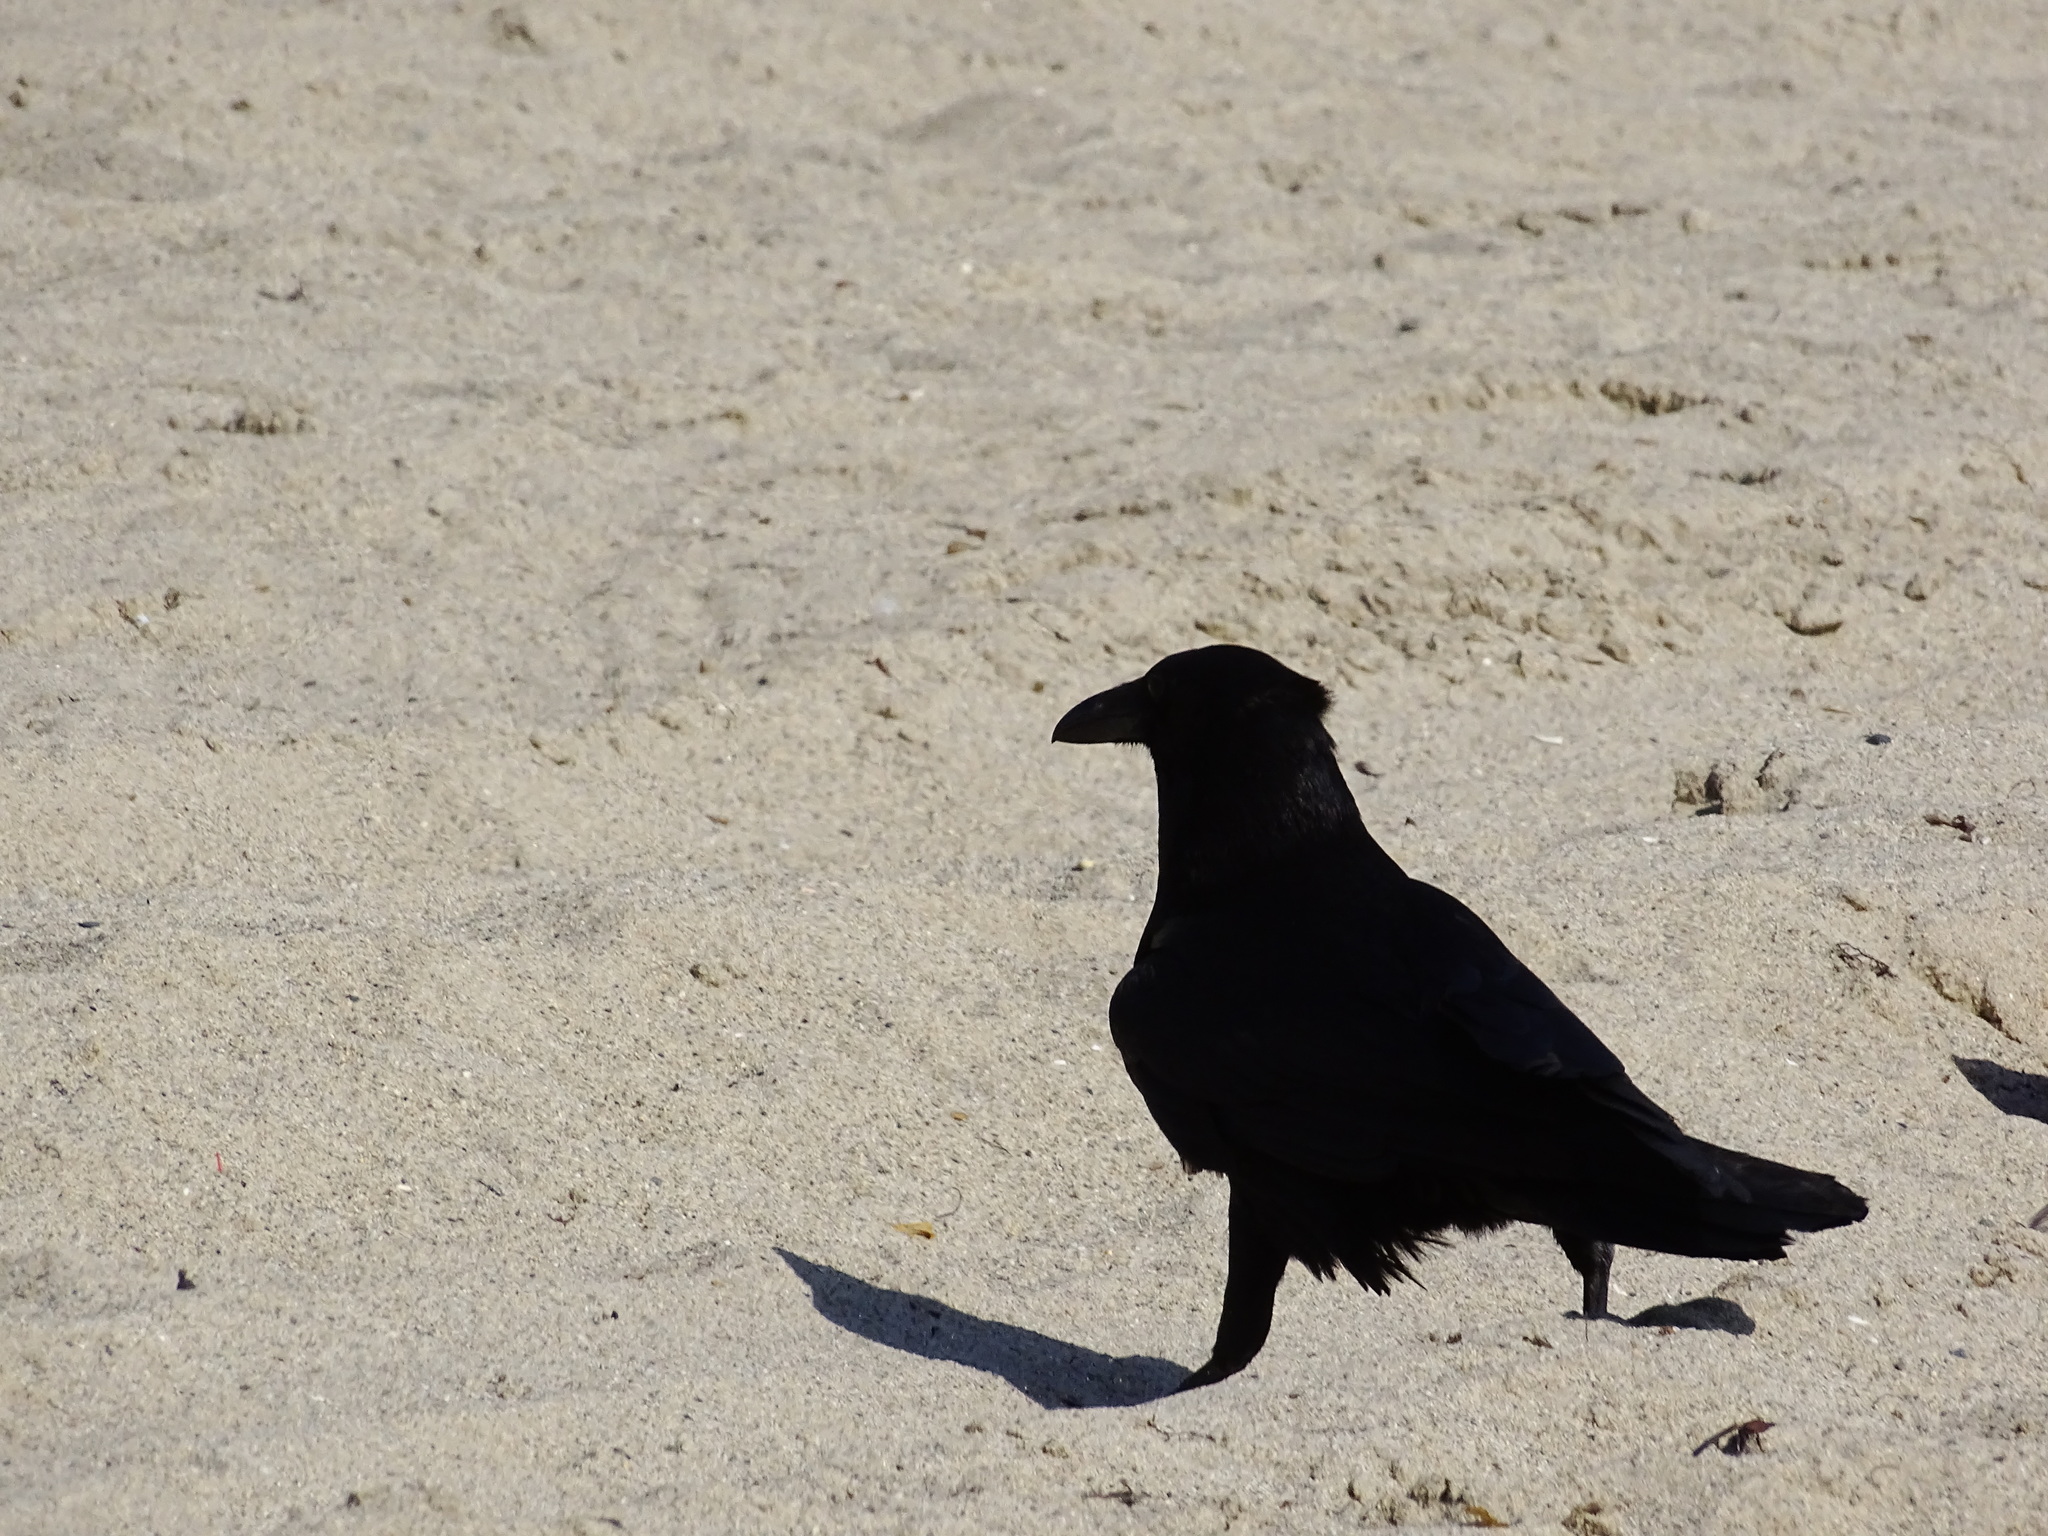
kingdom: Animalia
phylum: Chordata
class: Aves
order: Passeriformes
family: Corvidae
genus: Corvus
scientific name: Corvus brachyrhynchos
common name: American crow
